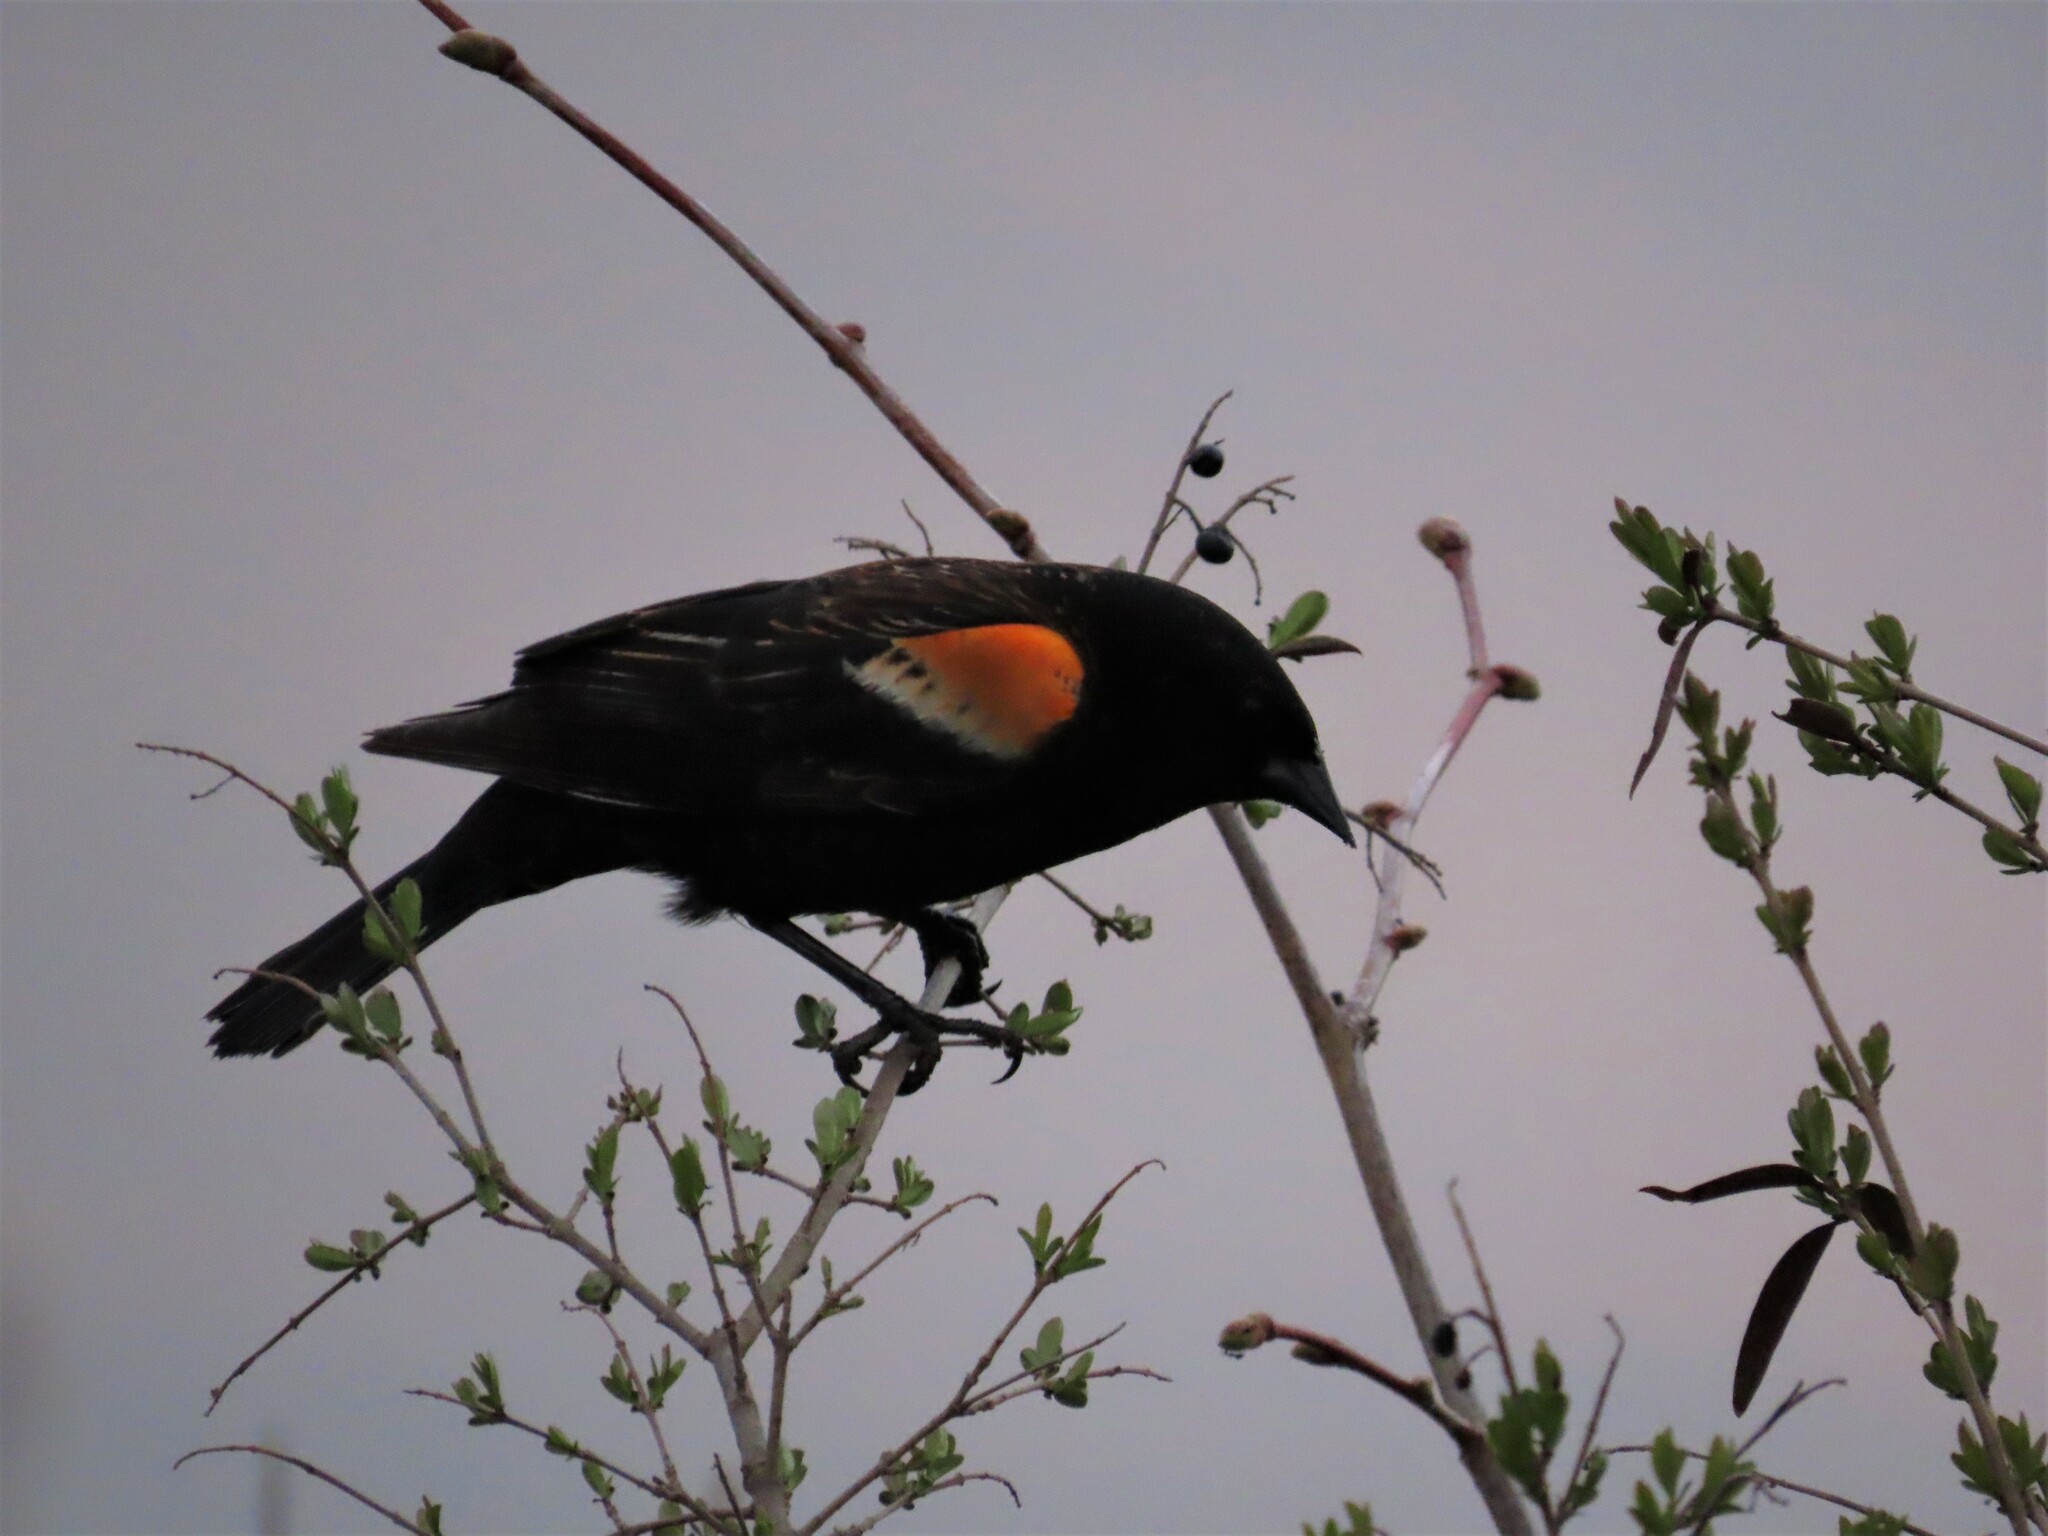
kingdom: Animalia
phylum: Chordata
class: Aves
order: Passeriformes
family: Icteridae
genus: Agelaius
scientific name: Agelaius phoeniceus
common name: Red-winged blackbird
